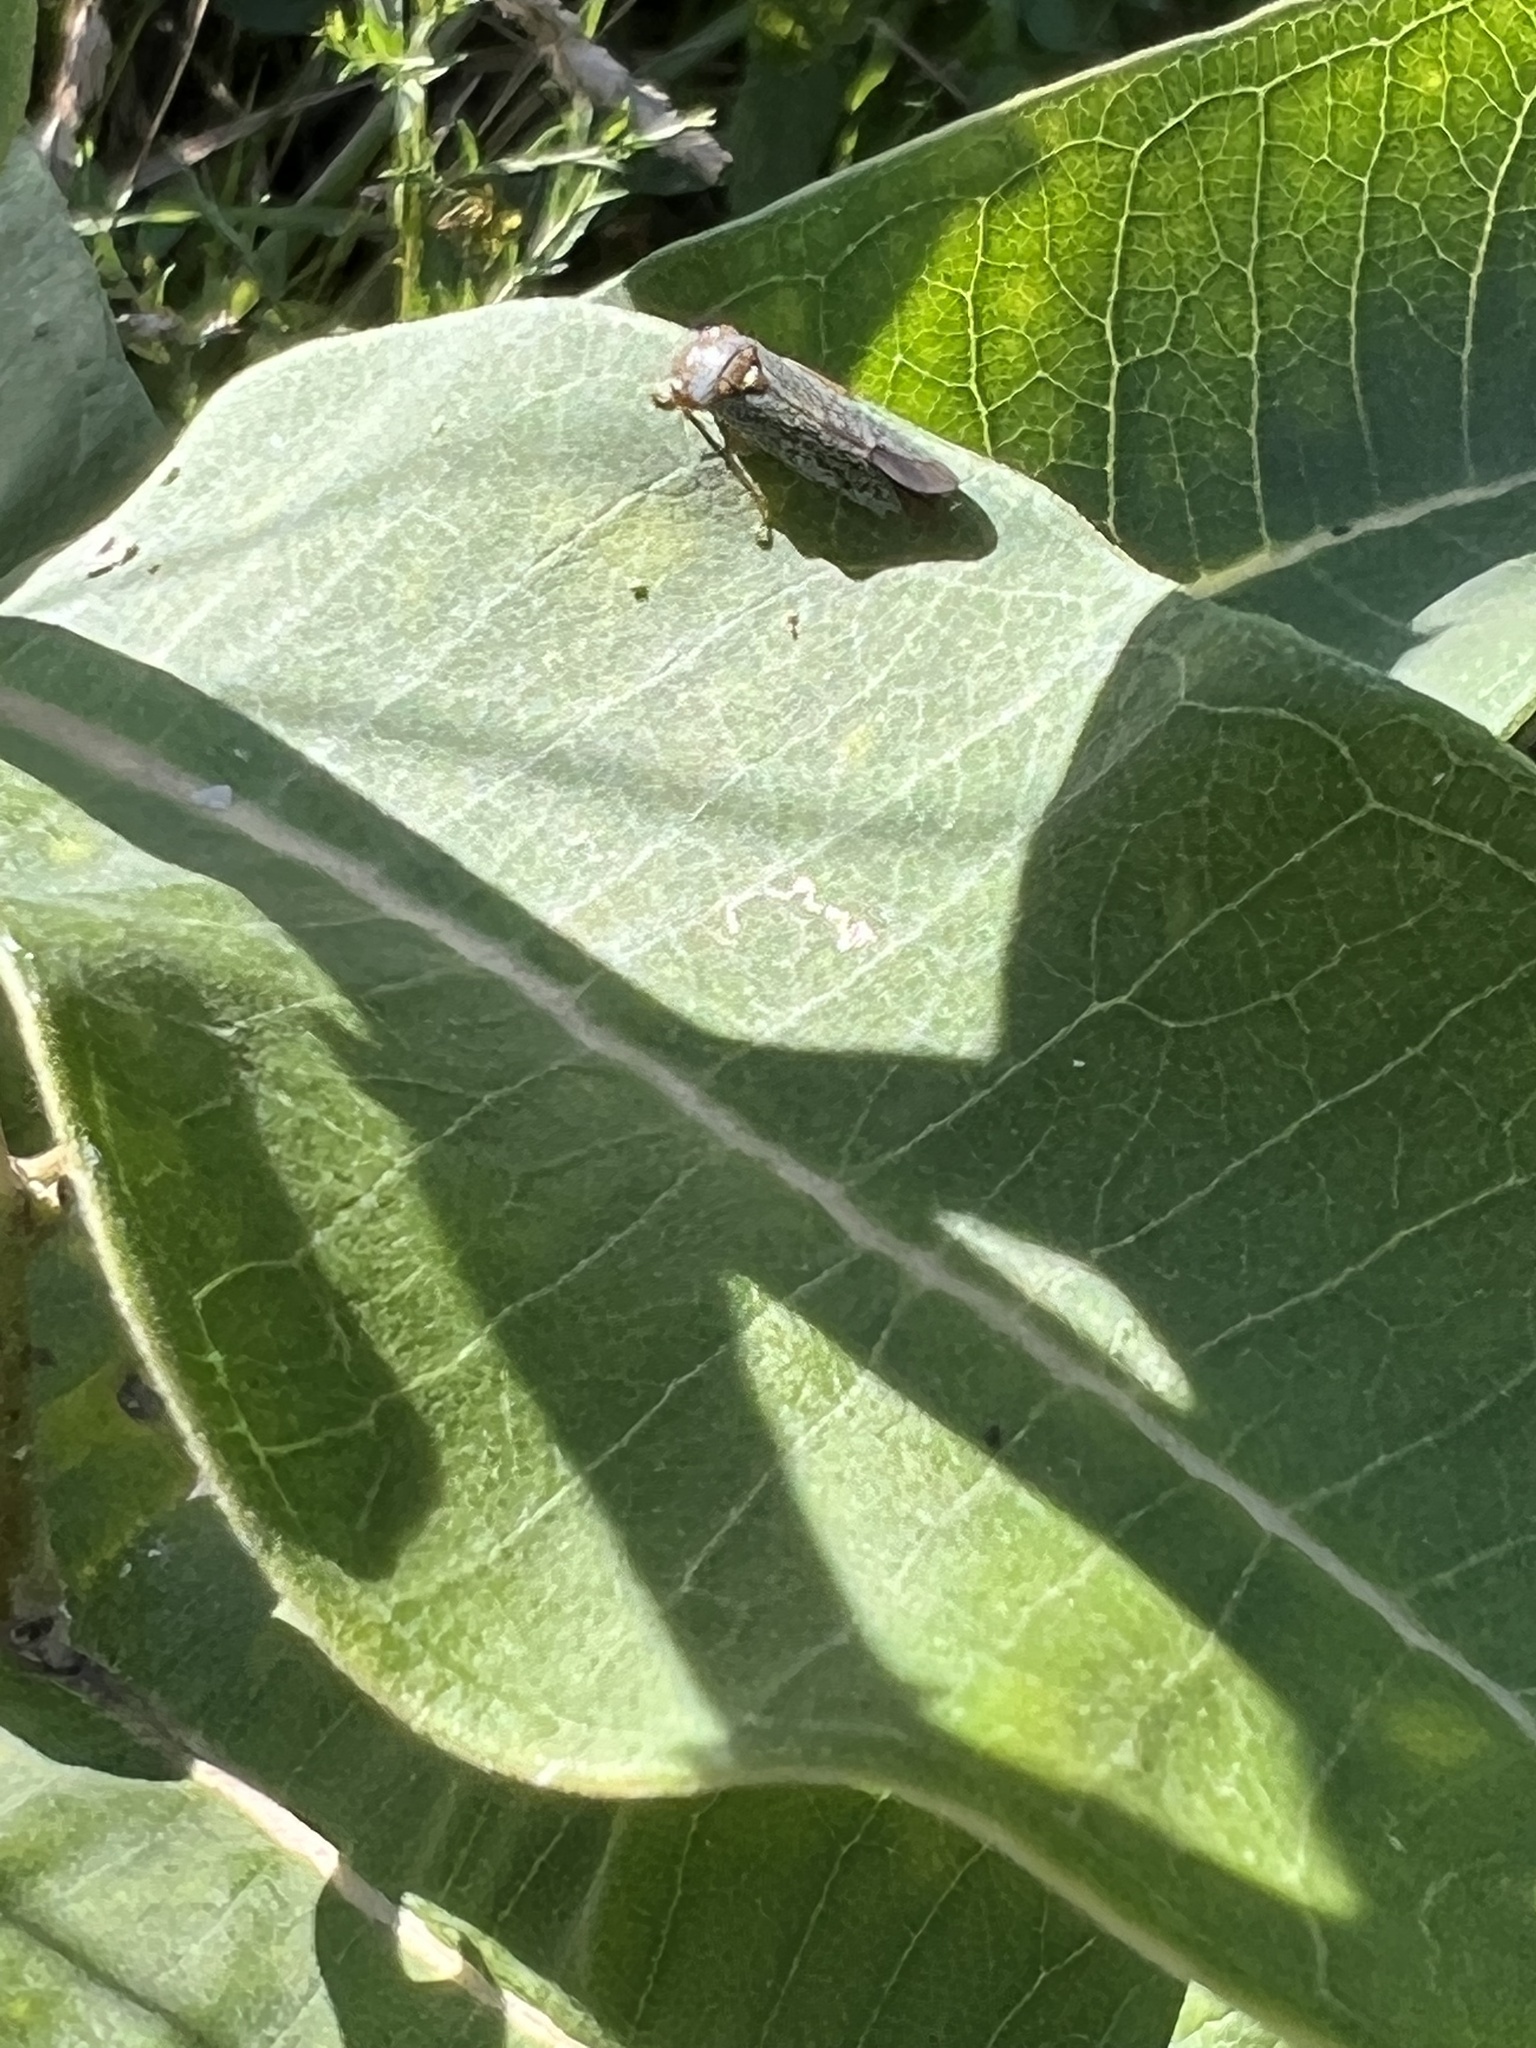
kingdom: Animalia
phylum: Arthropoda
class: Insecta
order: Hemiptera
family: Cicadellidae
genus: Oncometopia
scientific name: Oncometopia orbona
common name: Broad-headed sharpshooter
